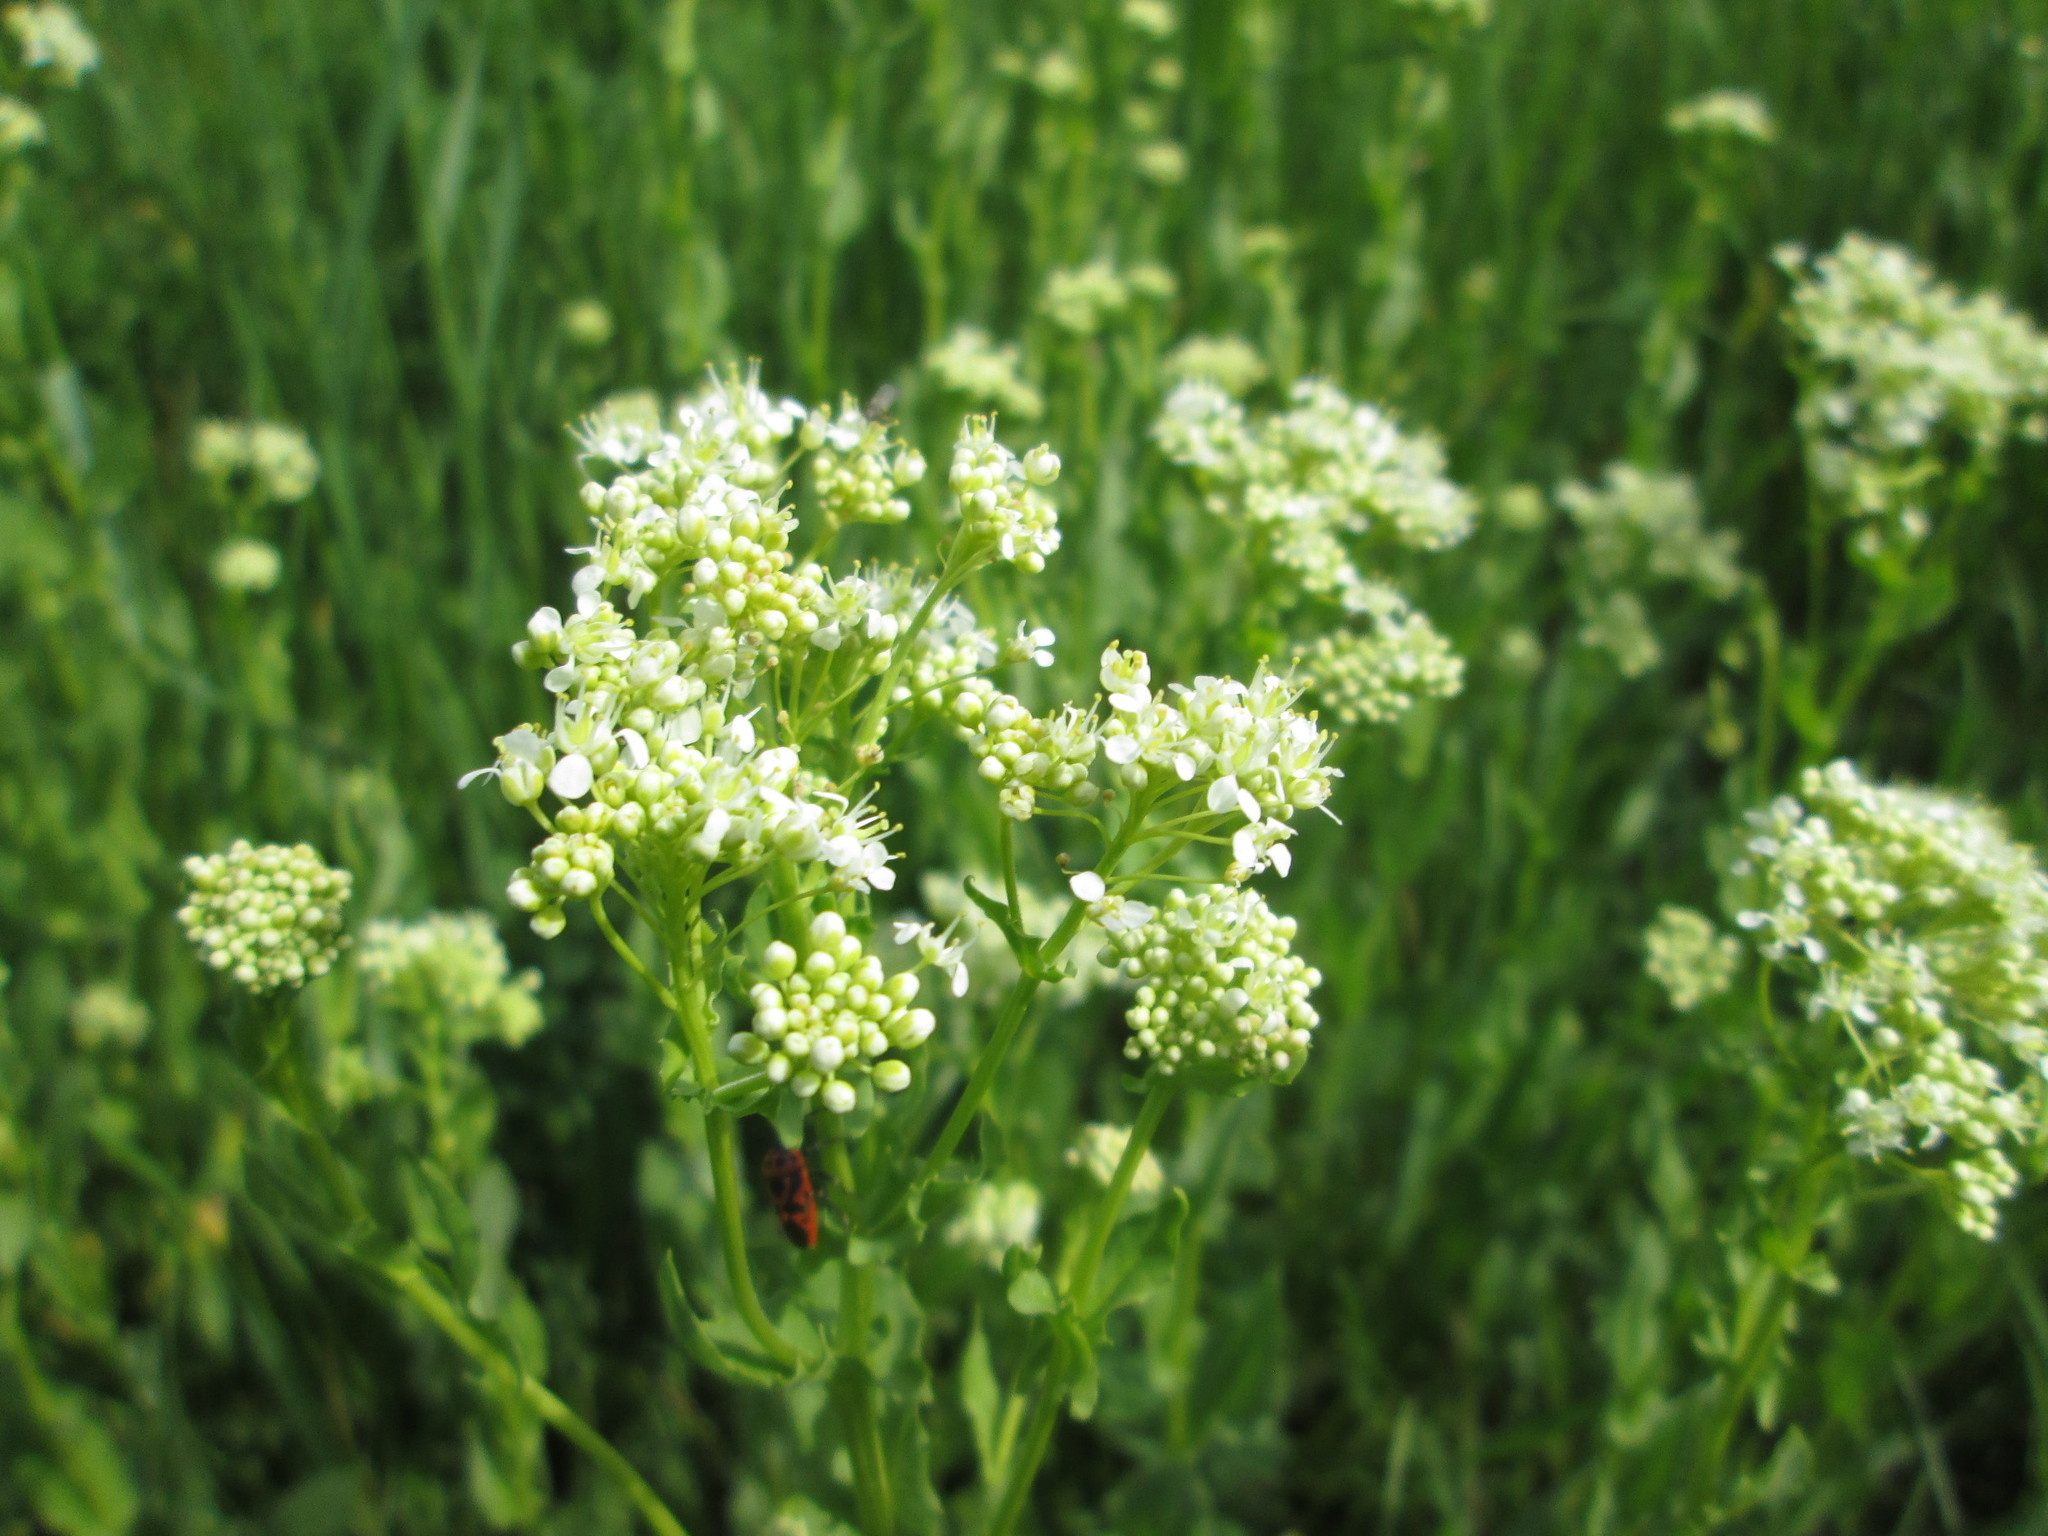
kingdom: Plantae
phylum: Tracheophyta
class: Magnoliopsida
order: Brassicales
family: Brassicaceae
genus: Lepidium
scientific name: Lepidium draba
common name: Hoary cress
